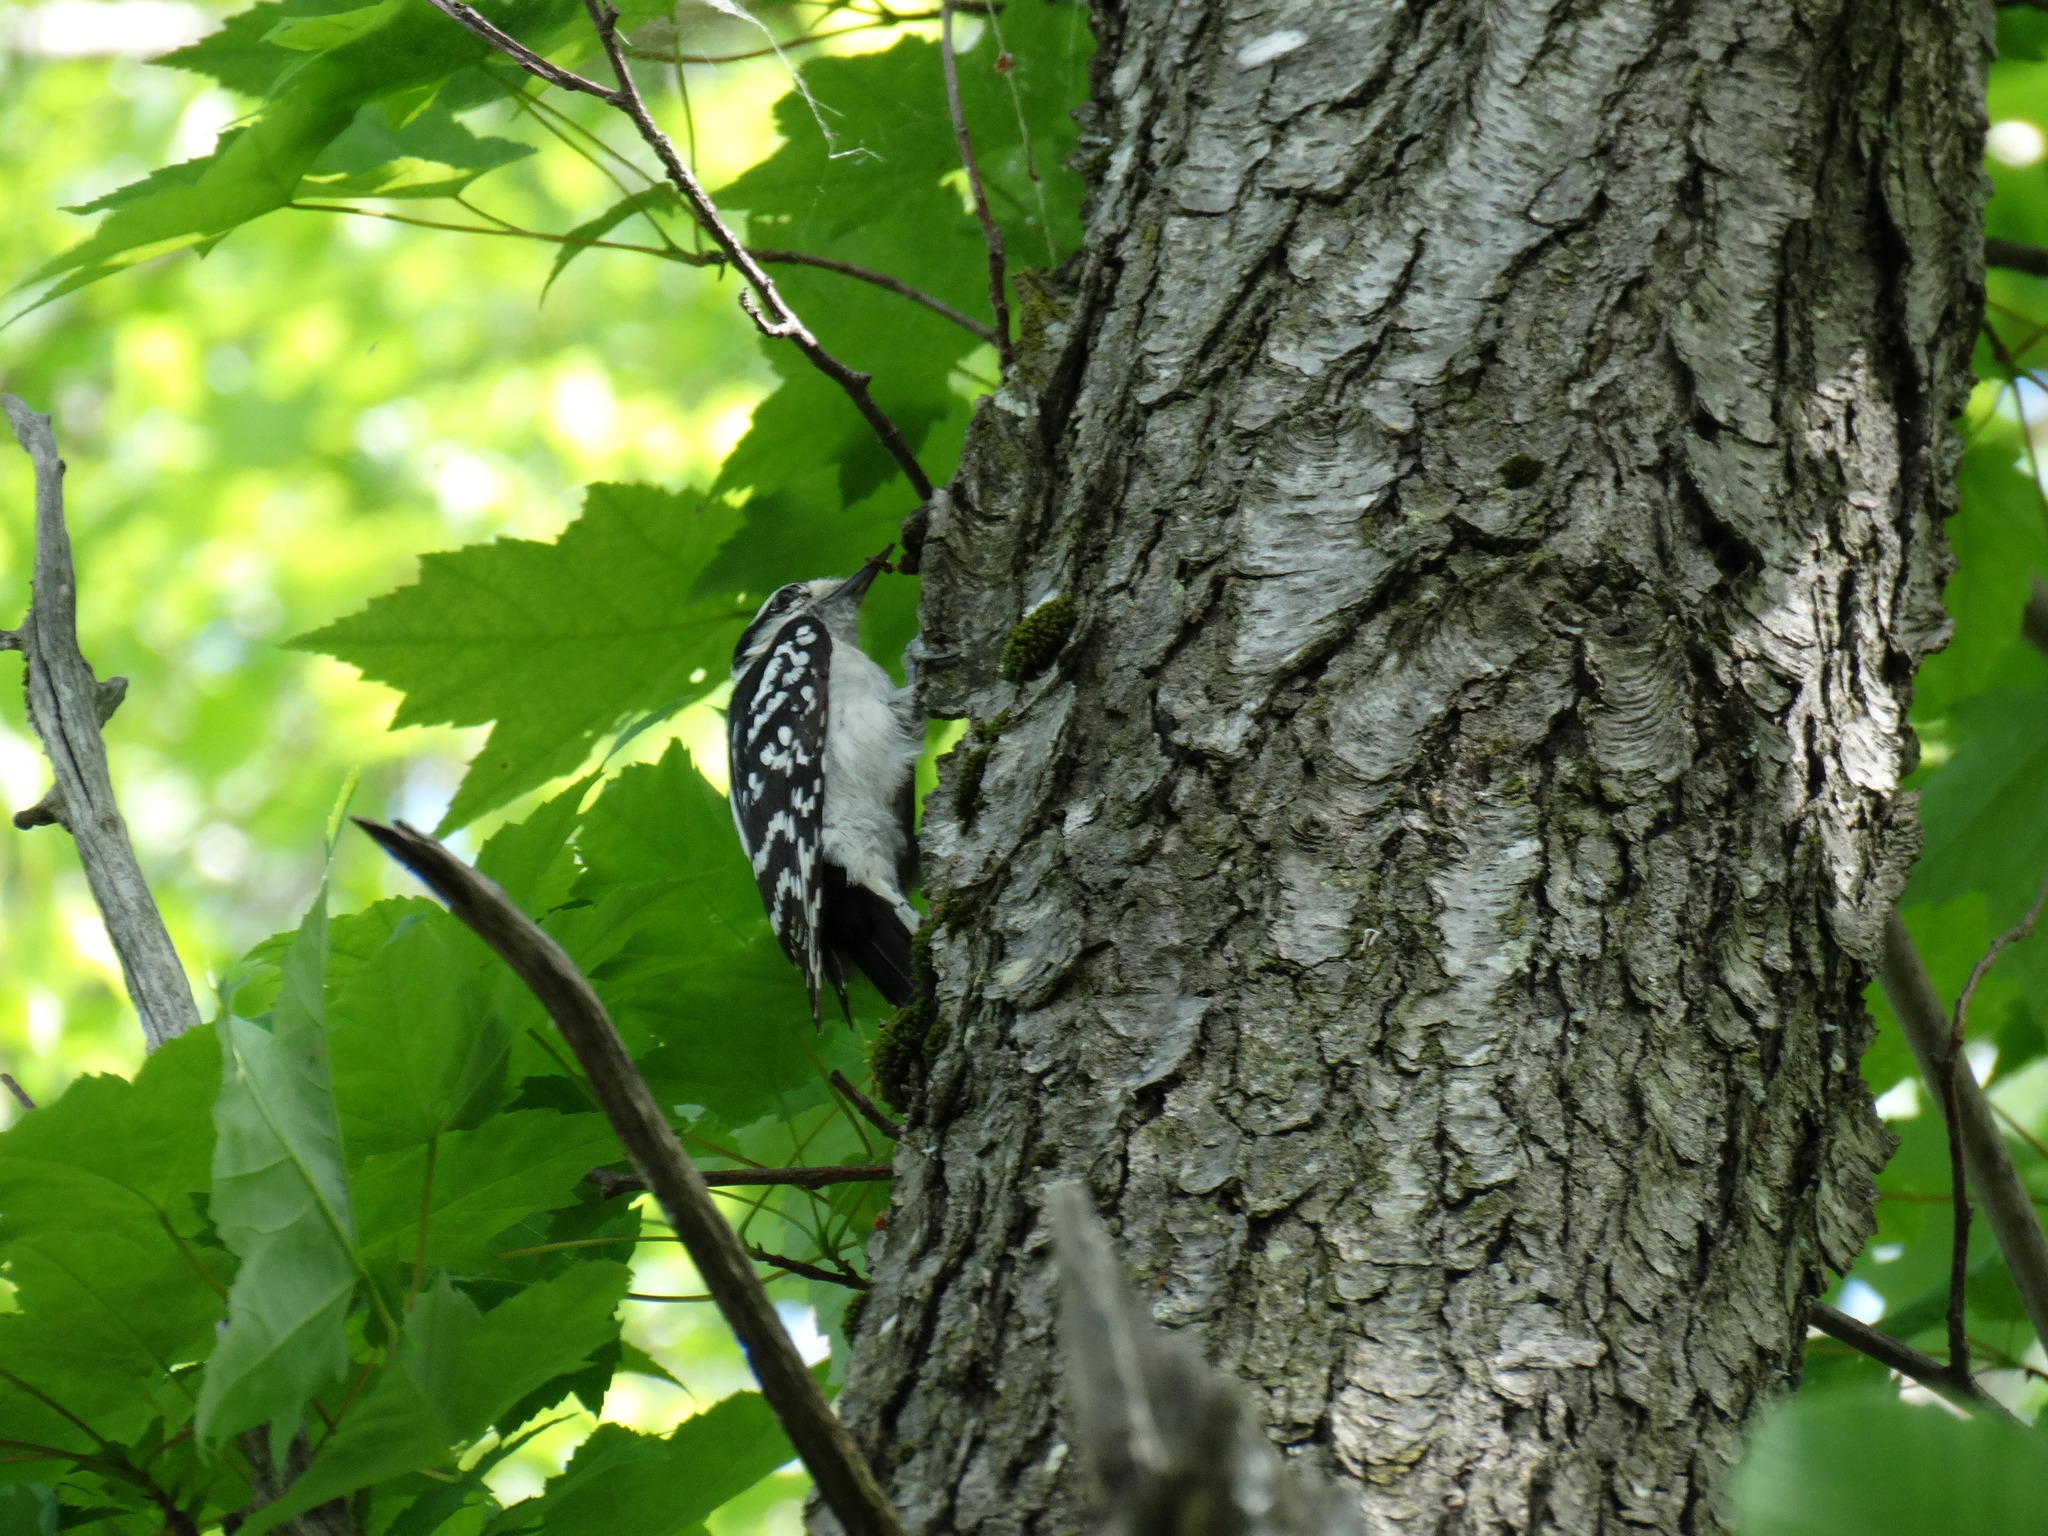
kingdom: Animalia
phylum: Chordata
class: Aves
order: Piciformes
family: Picidae
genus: Dryobates
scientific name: Dryobates pubescens
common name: Downy woodpecker
